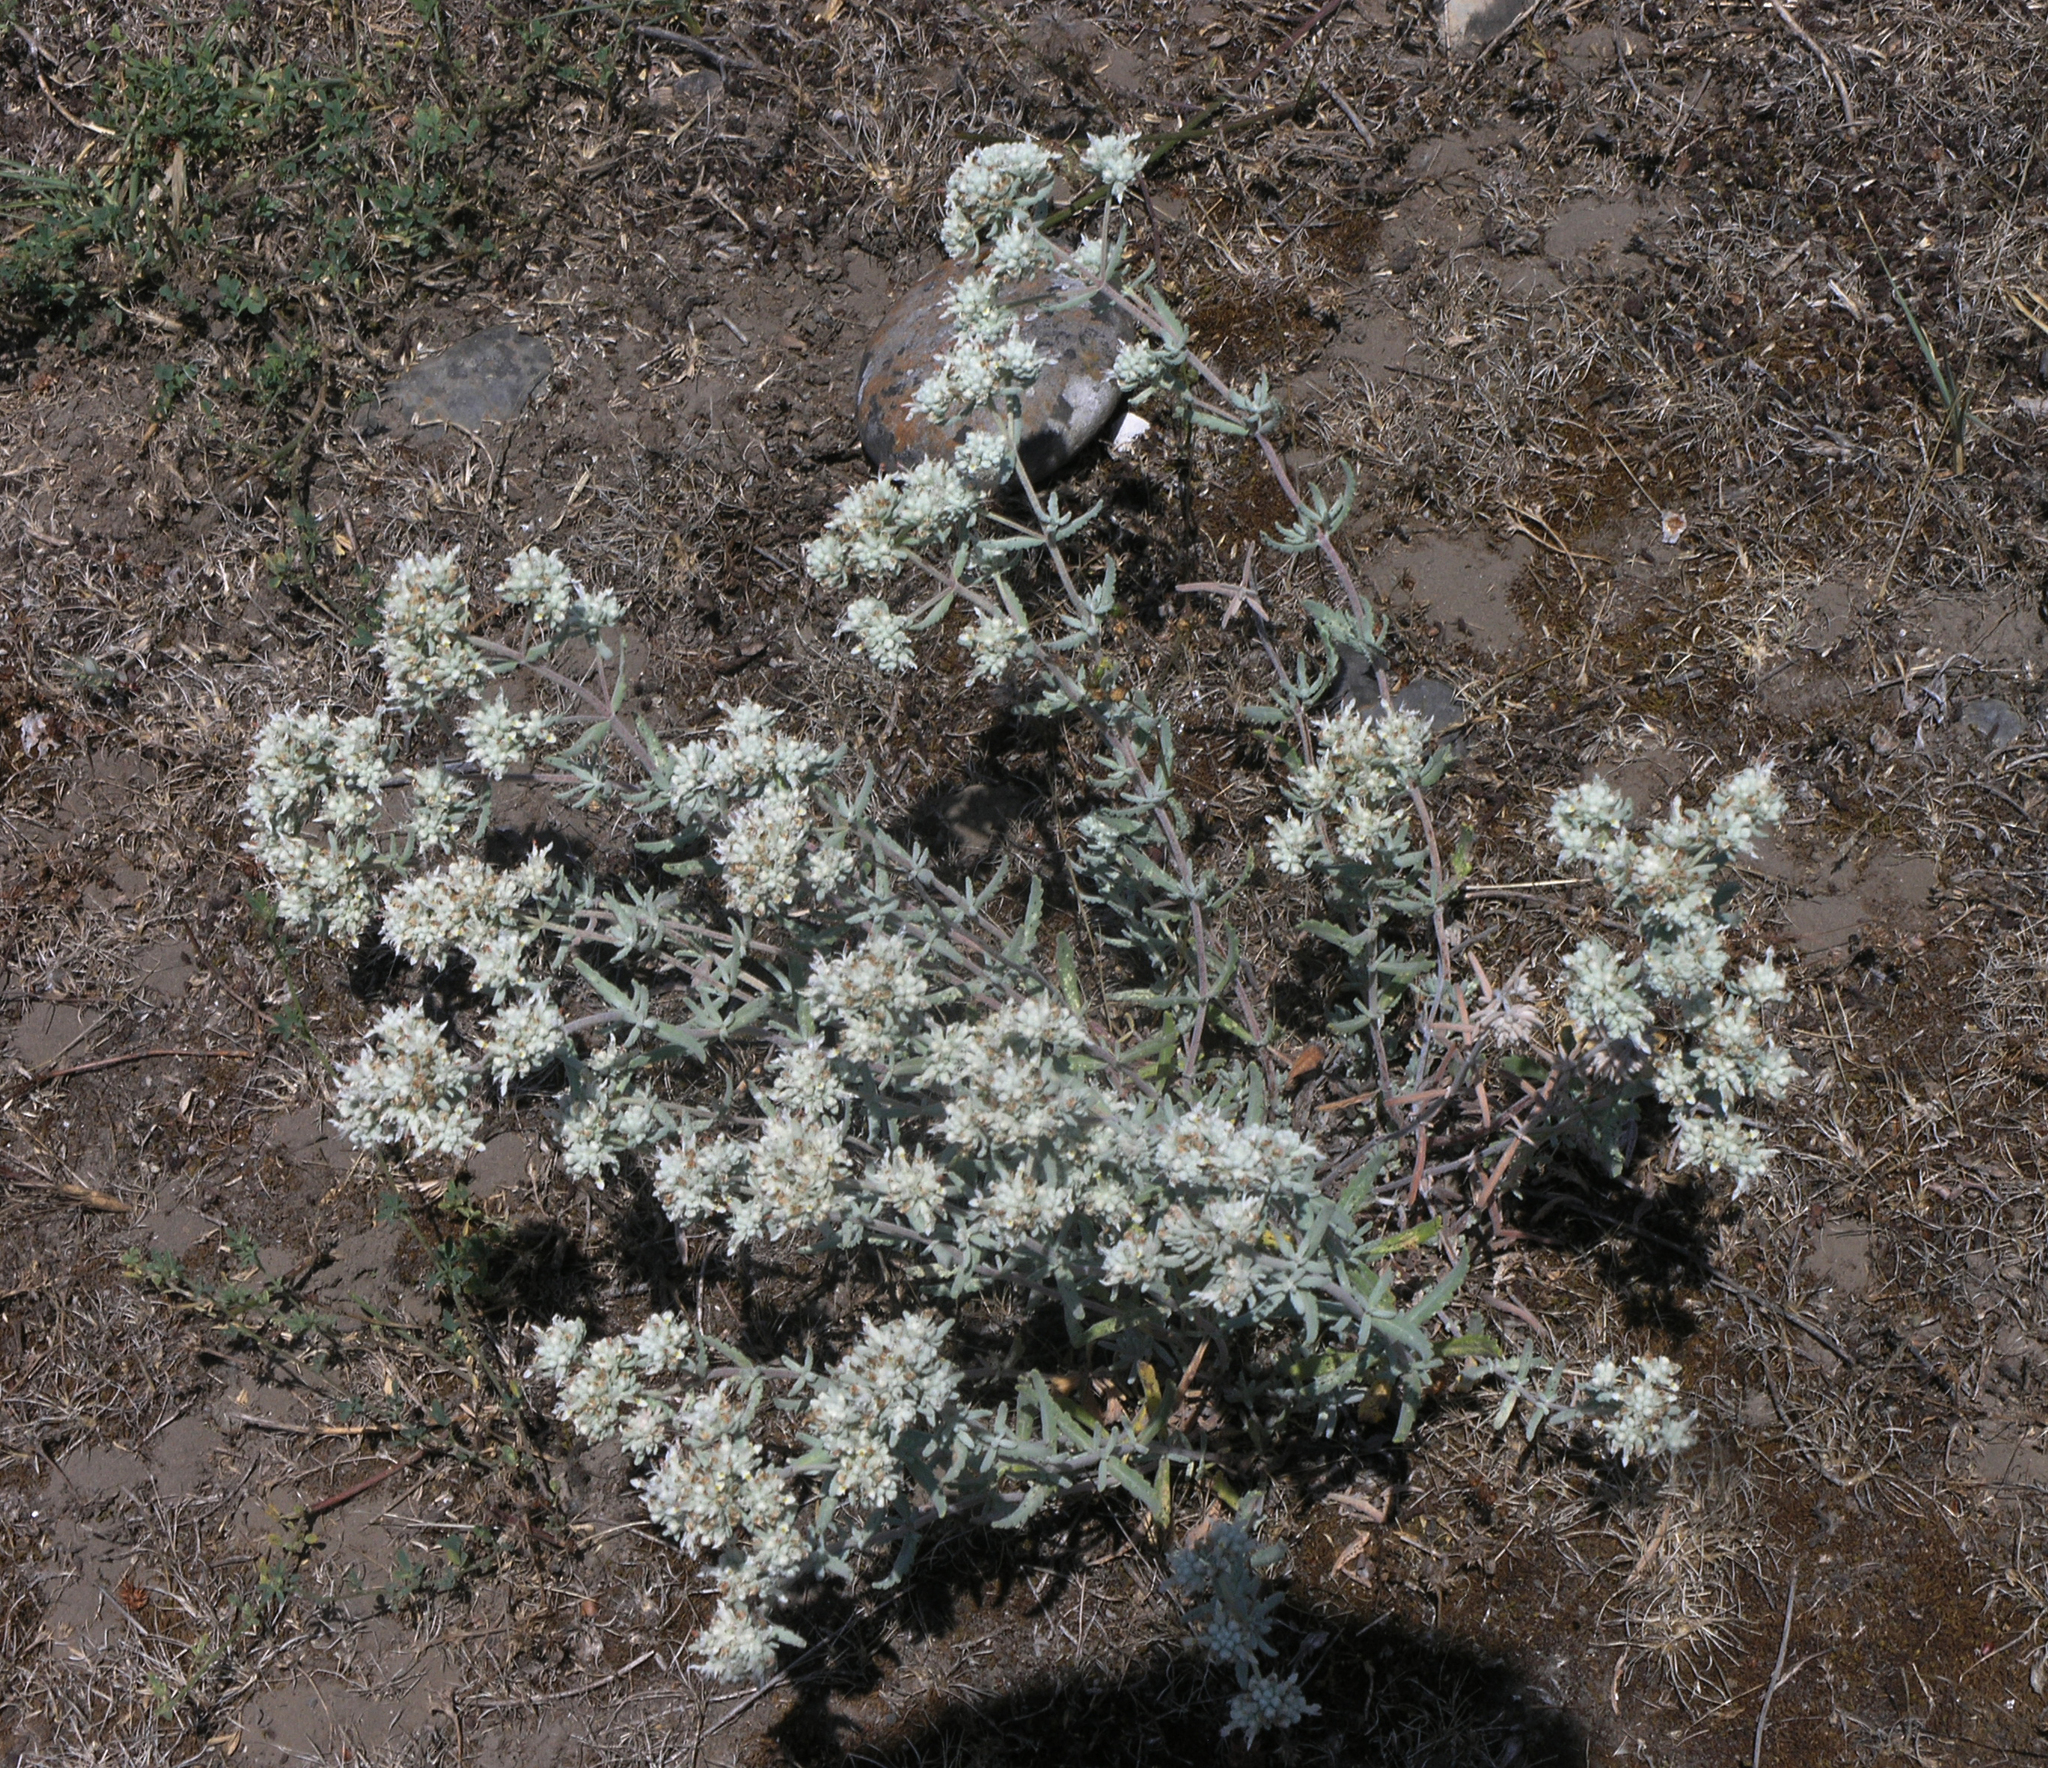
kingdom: Plantae
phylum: Tracheophyta
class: Magnoliopsida
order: Lamiales
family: Lamiaceae
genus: Teucrium
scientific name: Teucrium polium
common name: Poley
